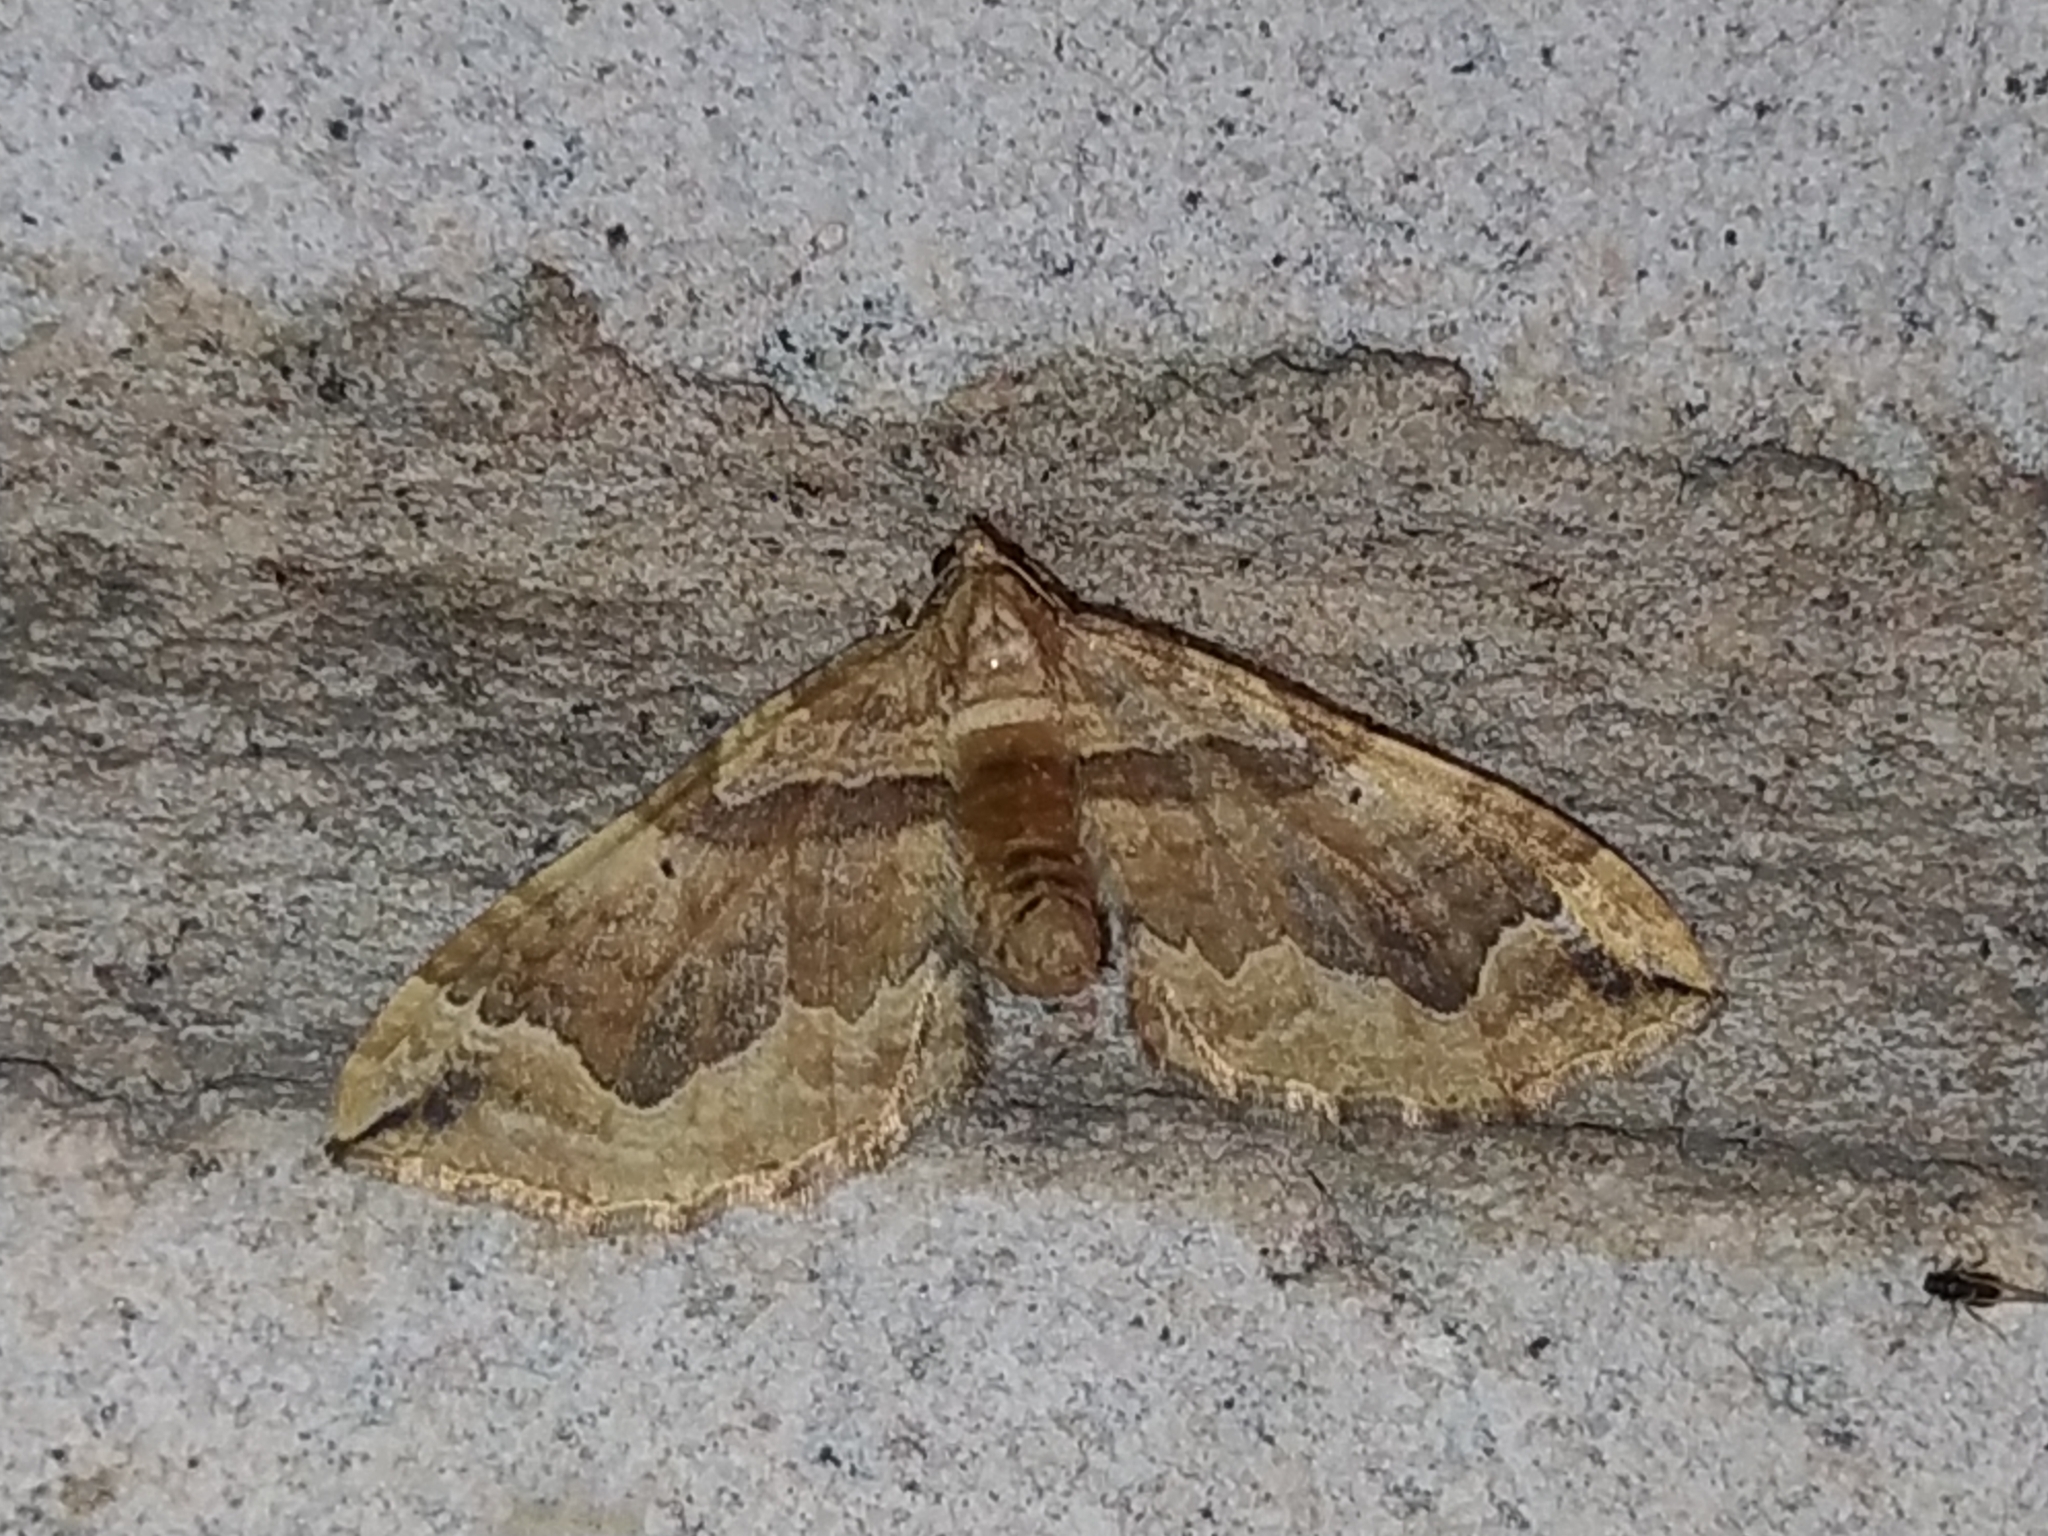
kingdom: Animalia
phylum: Arthropoda
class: Insecta
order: Lepidoptera
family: Geometridae
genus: Pelurga
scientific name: Pelurga comitata
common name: Dark spinach
